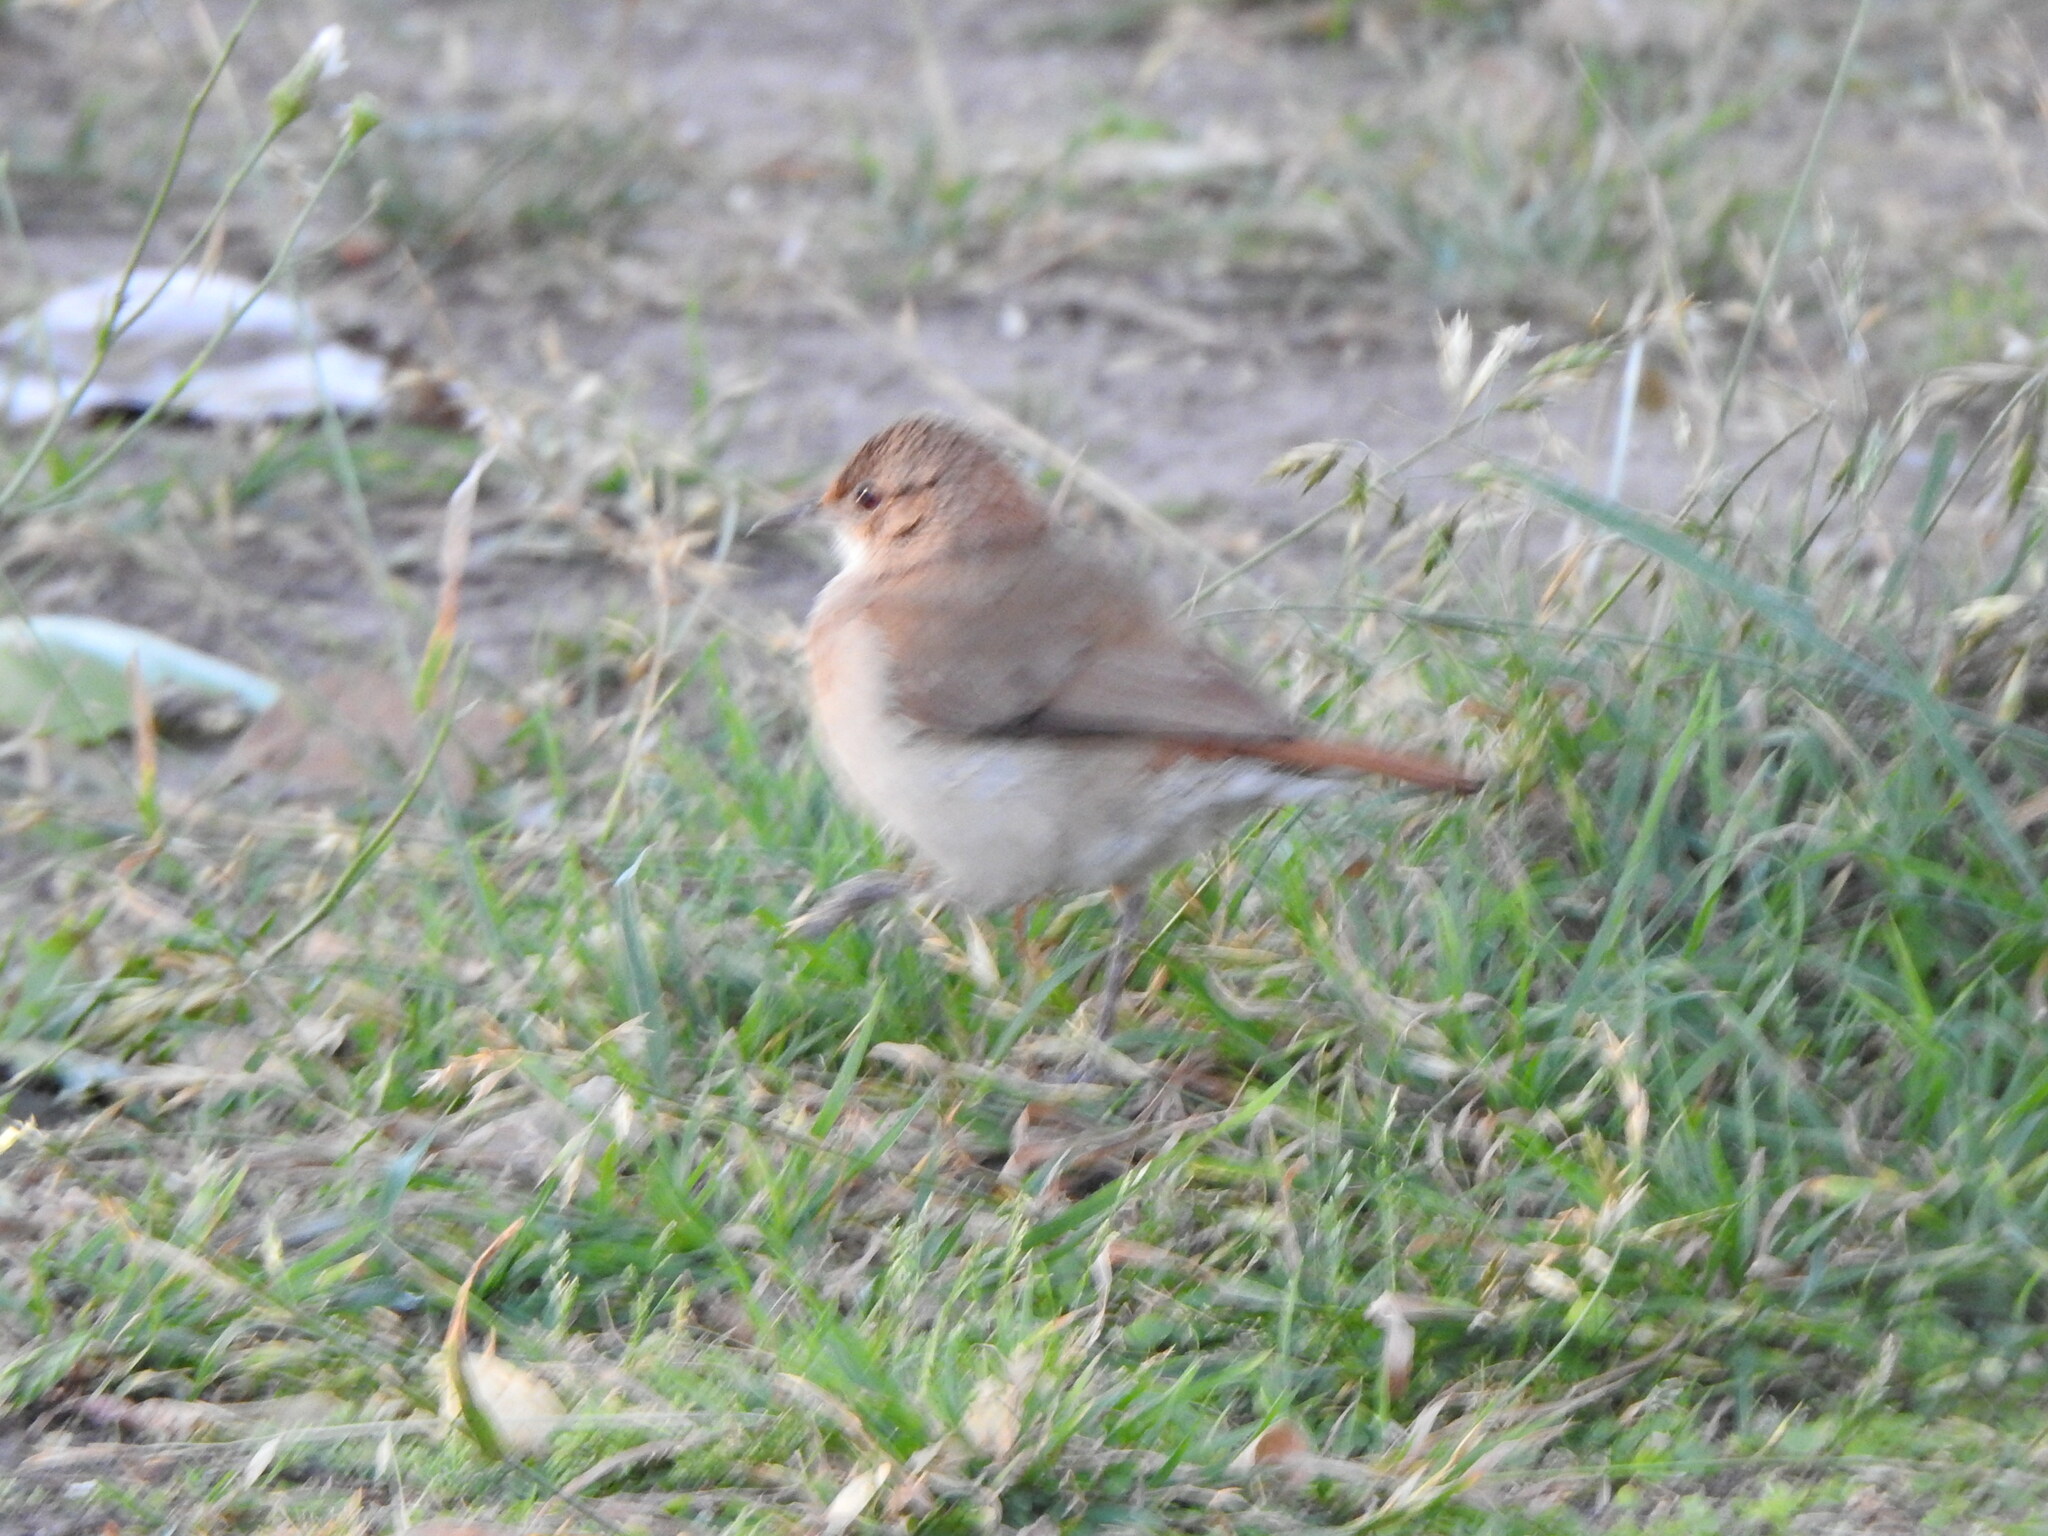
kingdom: Animalia
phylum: Chordata
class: Aves
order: Passeriformes
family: Furnariidae
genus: Furnarius
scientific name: Furnarius rufus
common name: Rufous hornero
